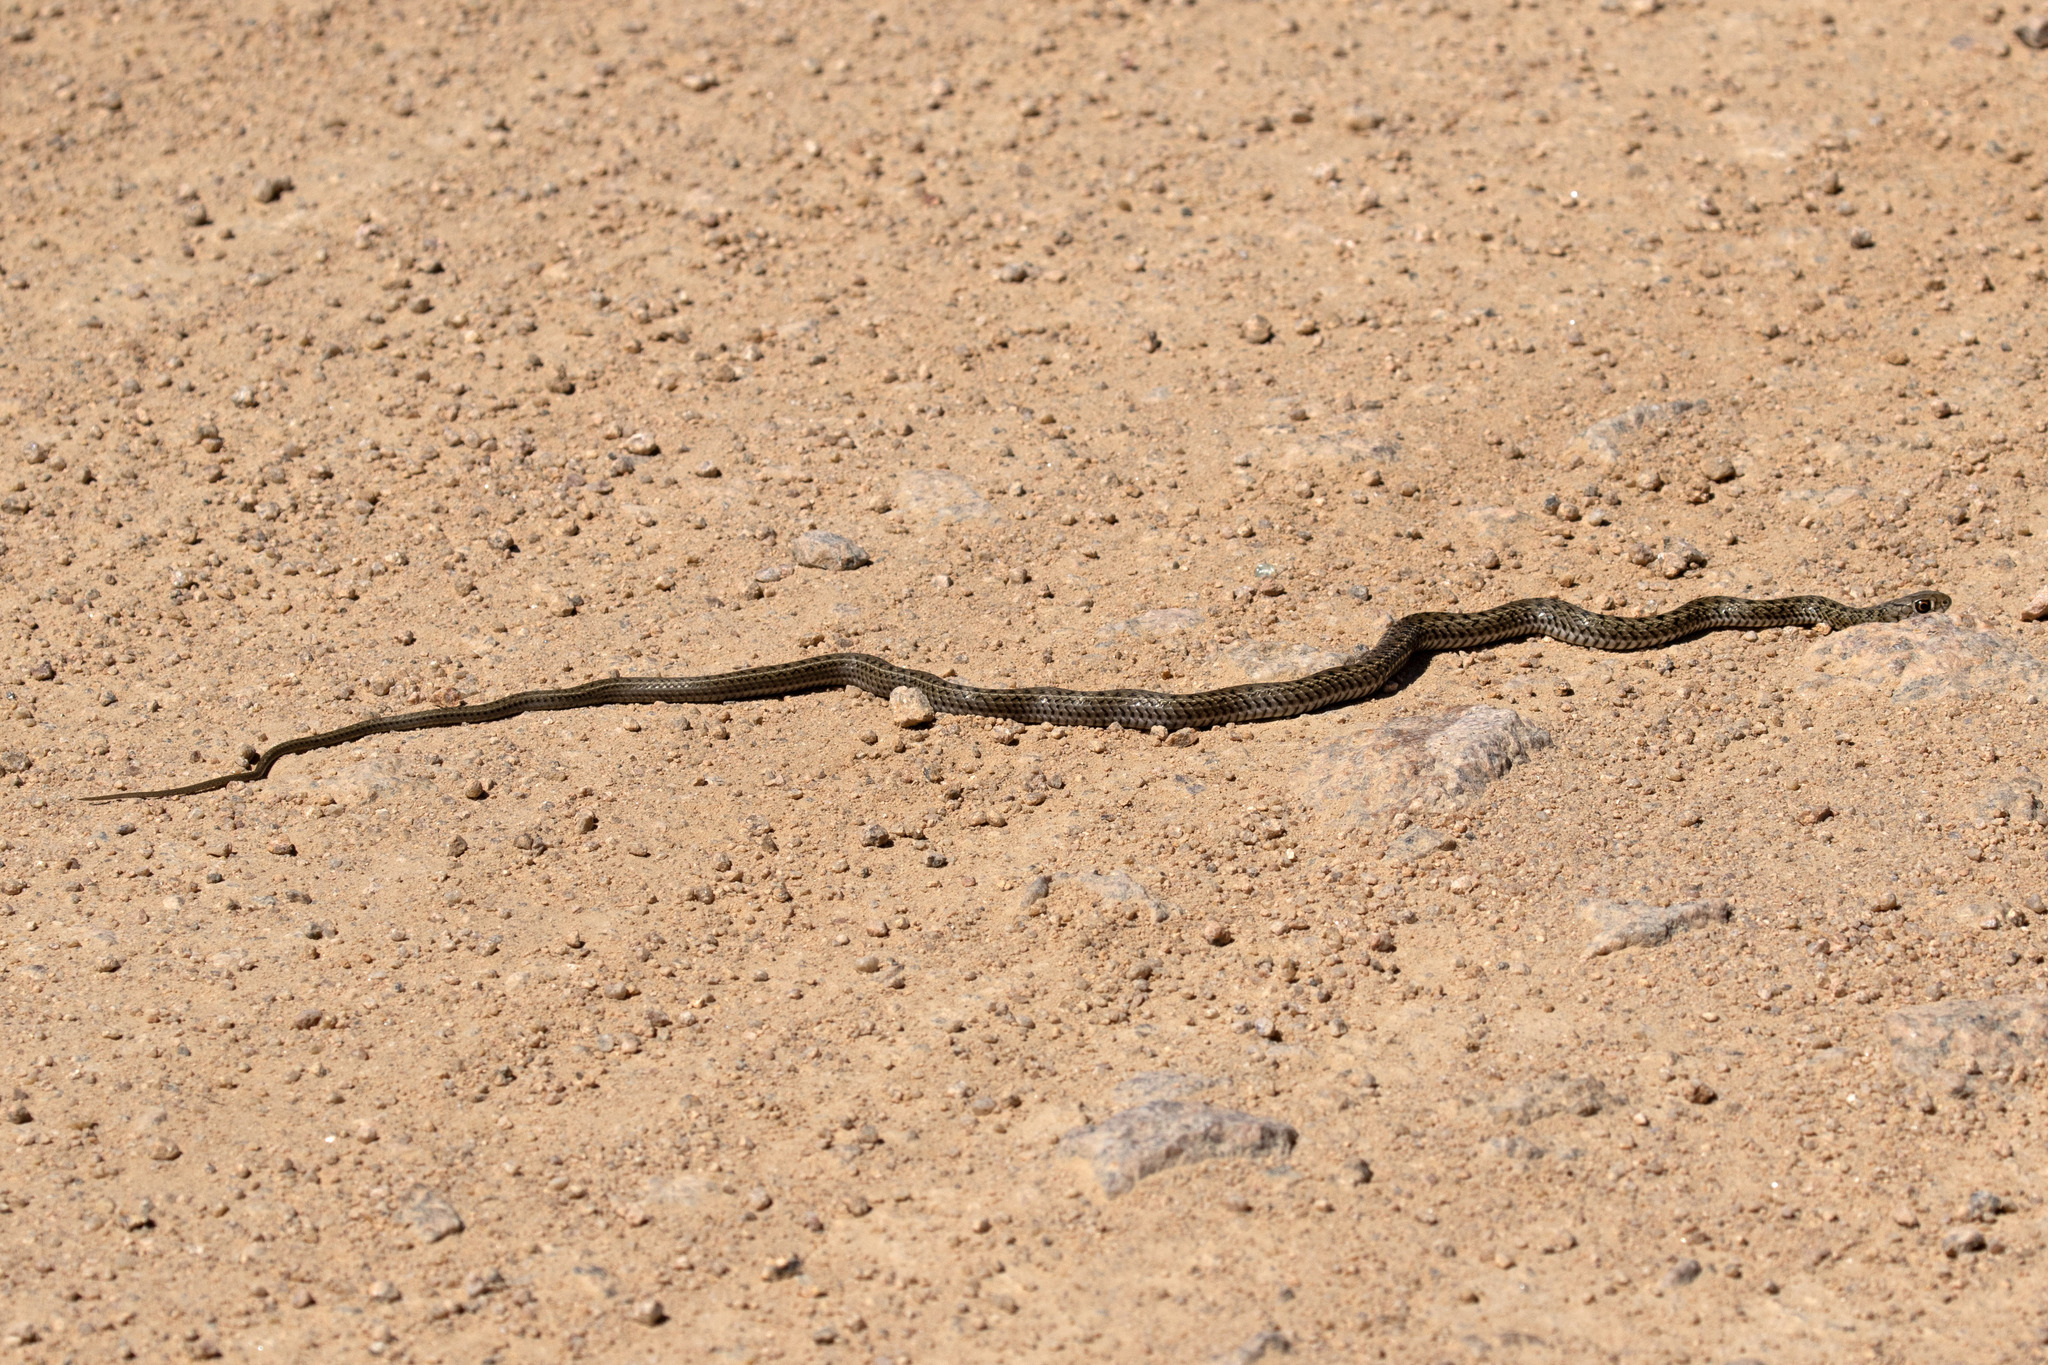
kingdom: Animalia
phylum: Chordata
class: Squamata
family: Colubridae
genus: Philodryas
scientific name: Philodryas patagoniensis
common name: Patagonia green racer
